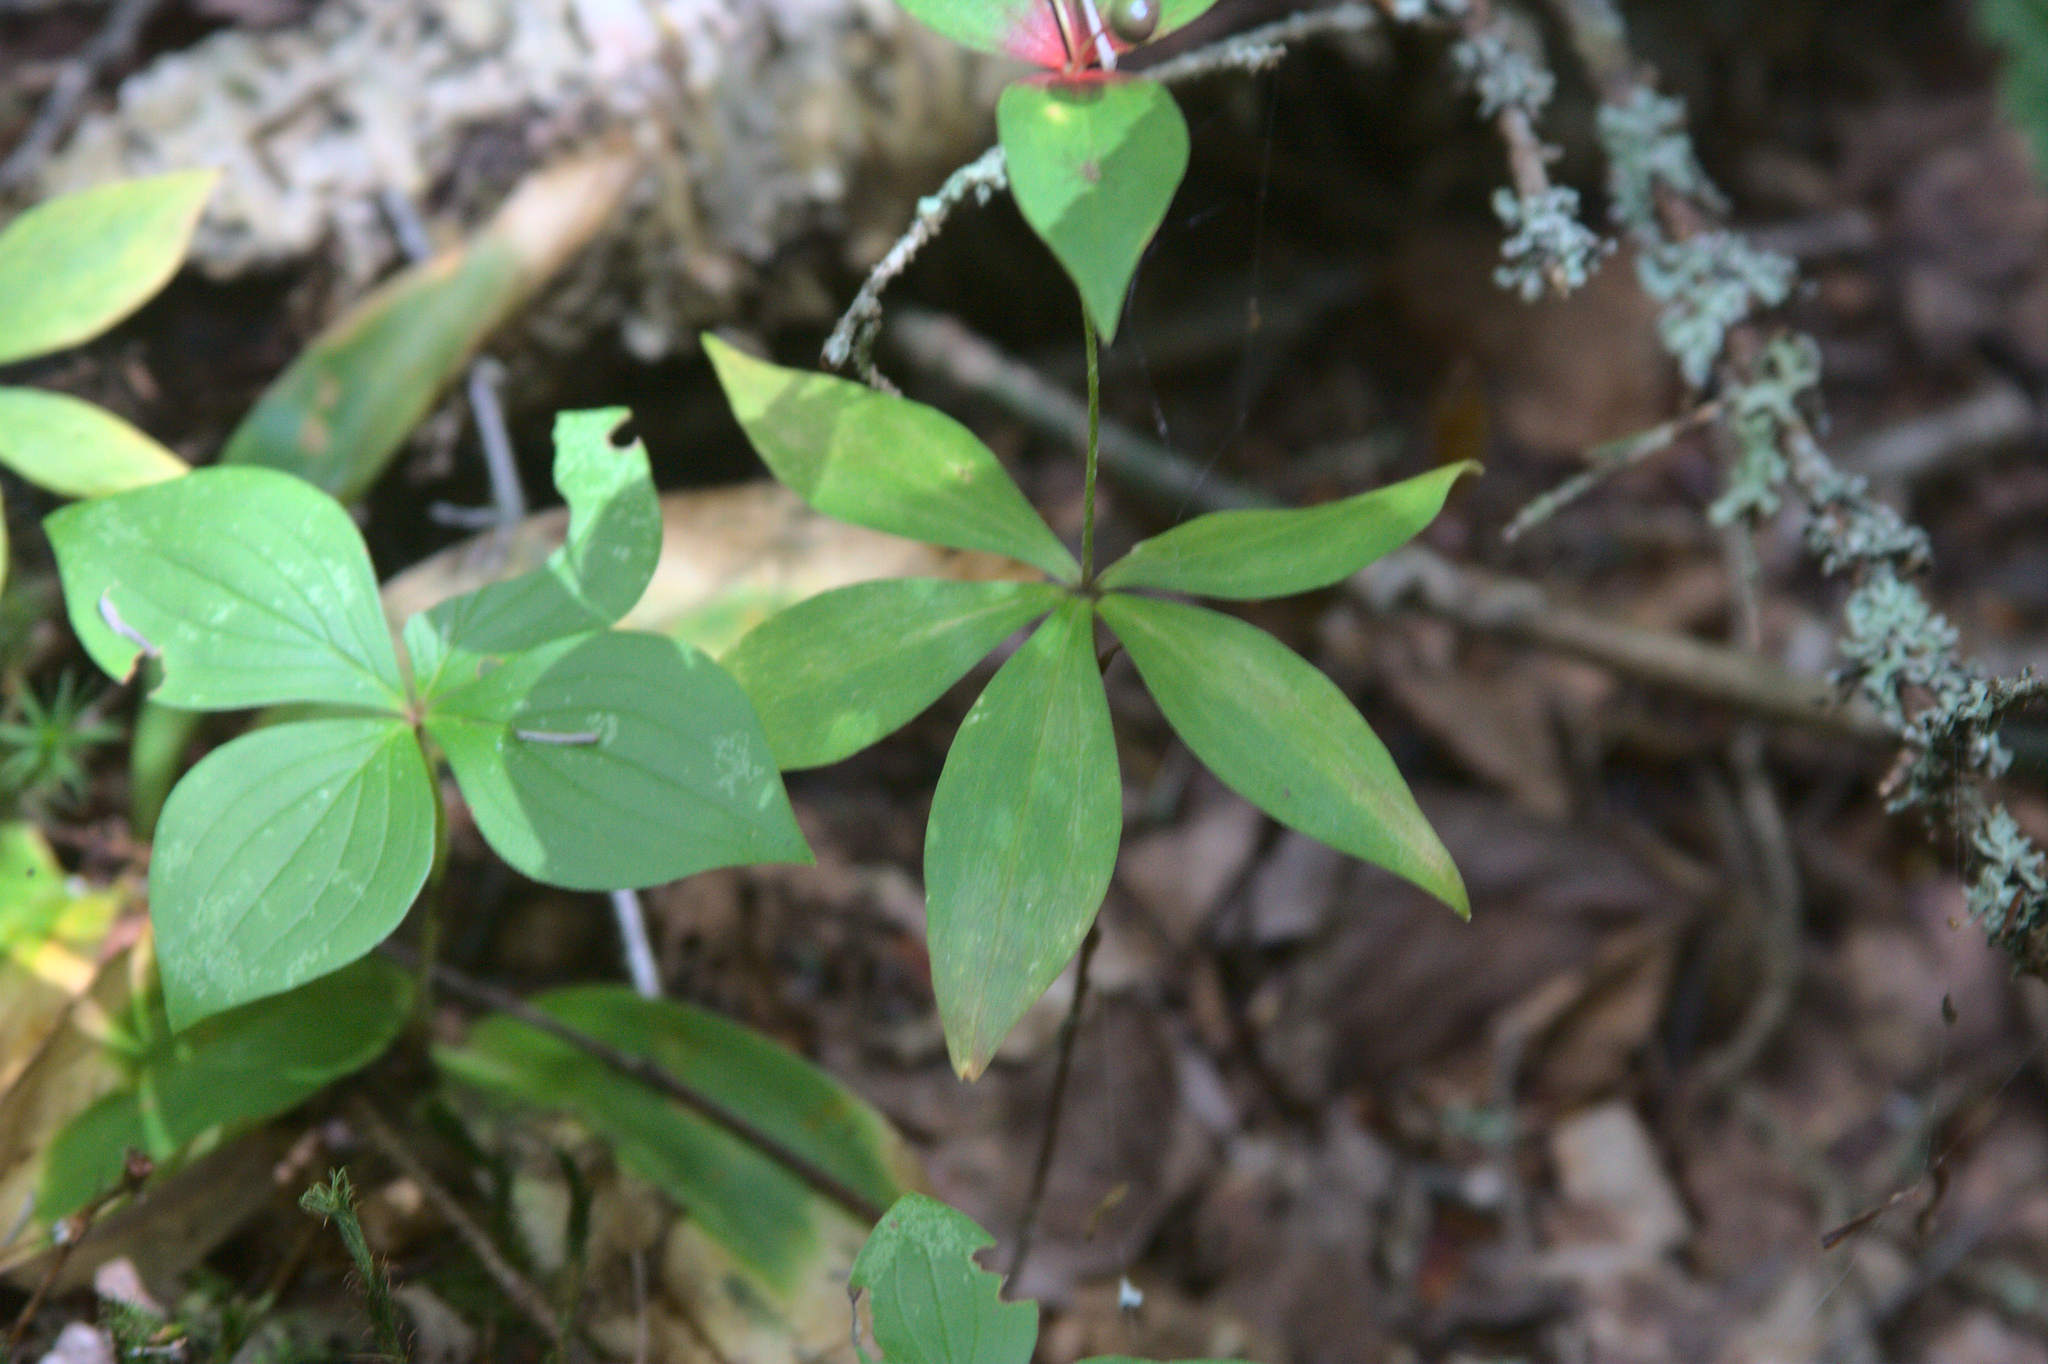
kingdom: Plantae
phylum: Tracheophyta
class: Liliopsida
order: Liliales
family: Liliaceae
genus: Medeola
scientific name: Medeola virginiana
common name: Indian cucumber-root
